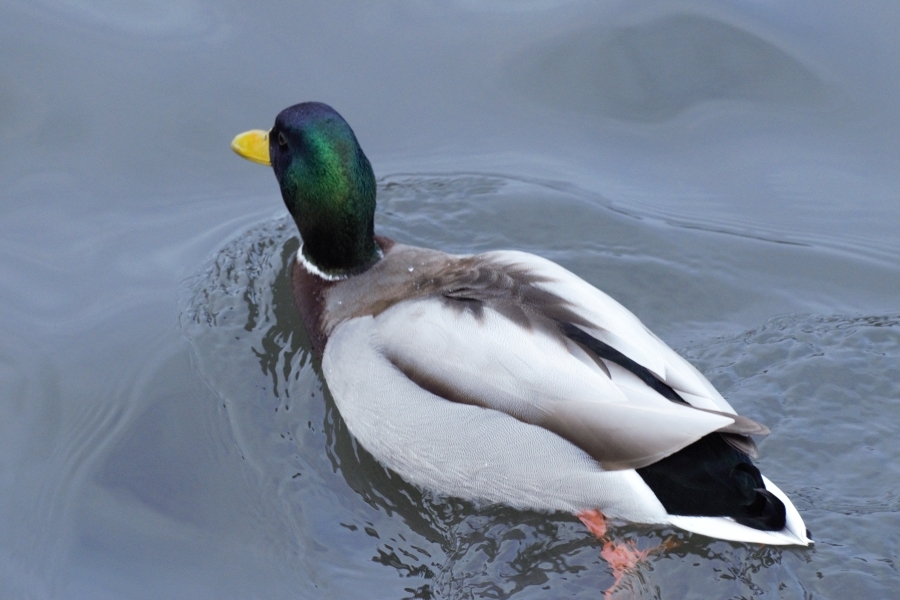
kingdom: Animalia
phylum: Chordata
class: Aves
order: Anseriformes
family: Anatidae
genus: Anas
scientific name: Anas platyrhynchos
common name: Mallard
